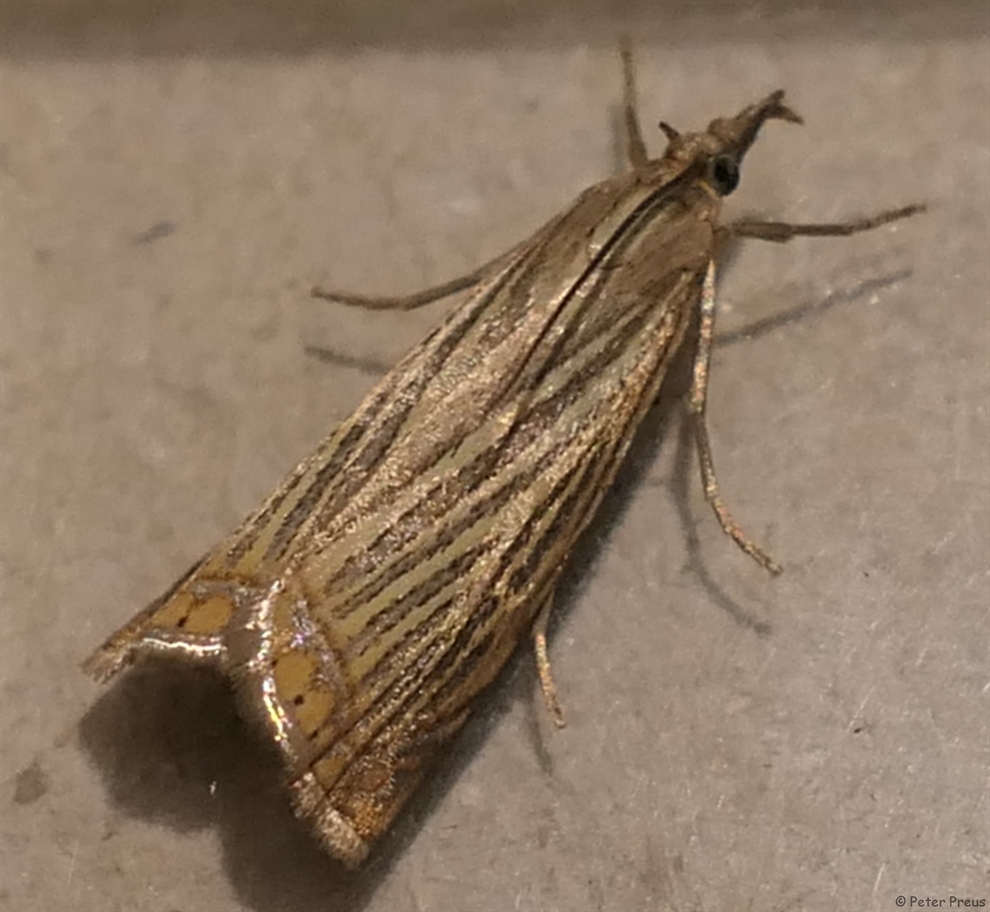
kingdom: Animalia
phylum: Arthropoda
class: Insecta
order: Lepidoptera
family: Crambidae
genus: Chrysoteuchia
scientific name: Chrysoteuchia culmella
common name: Garden grass-veneer
